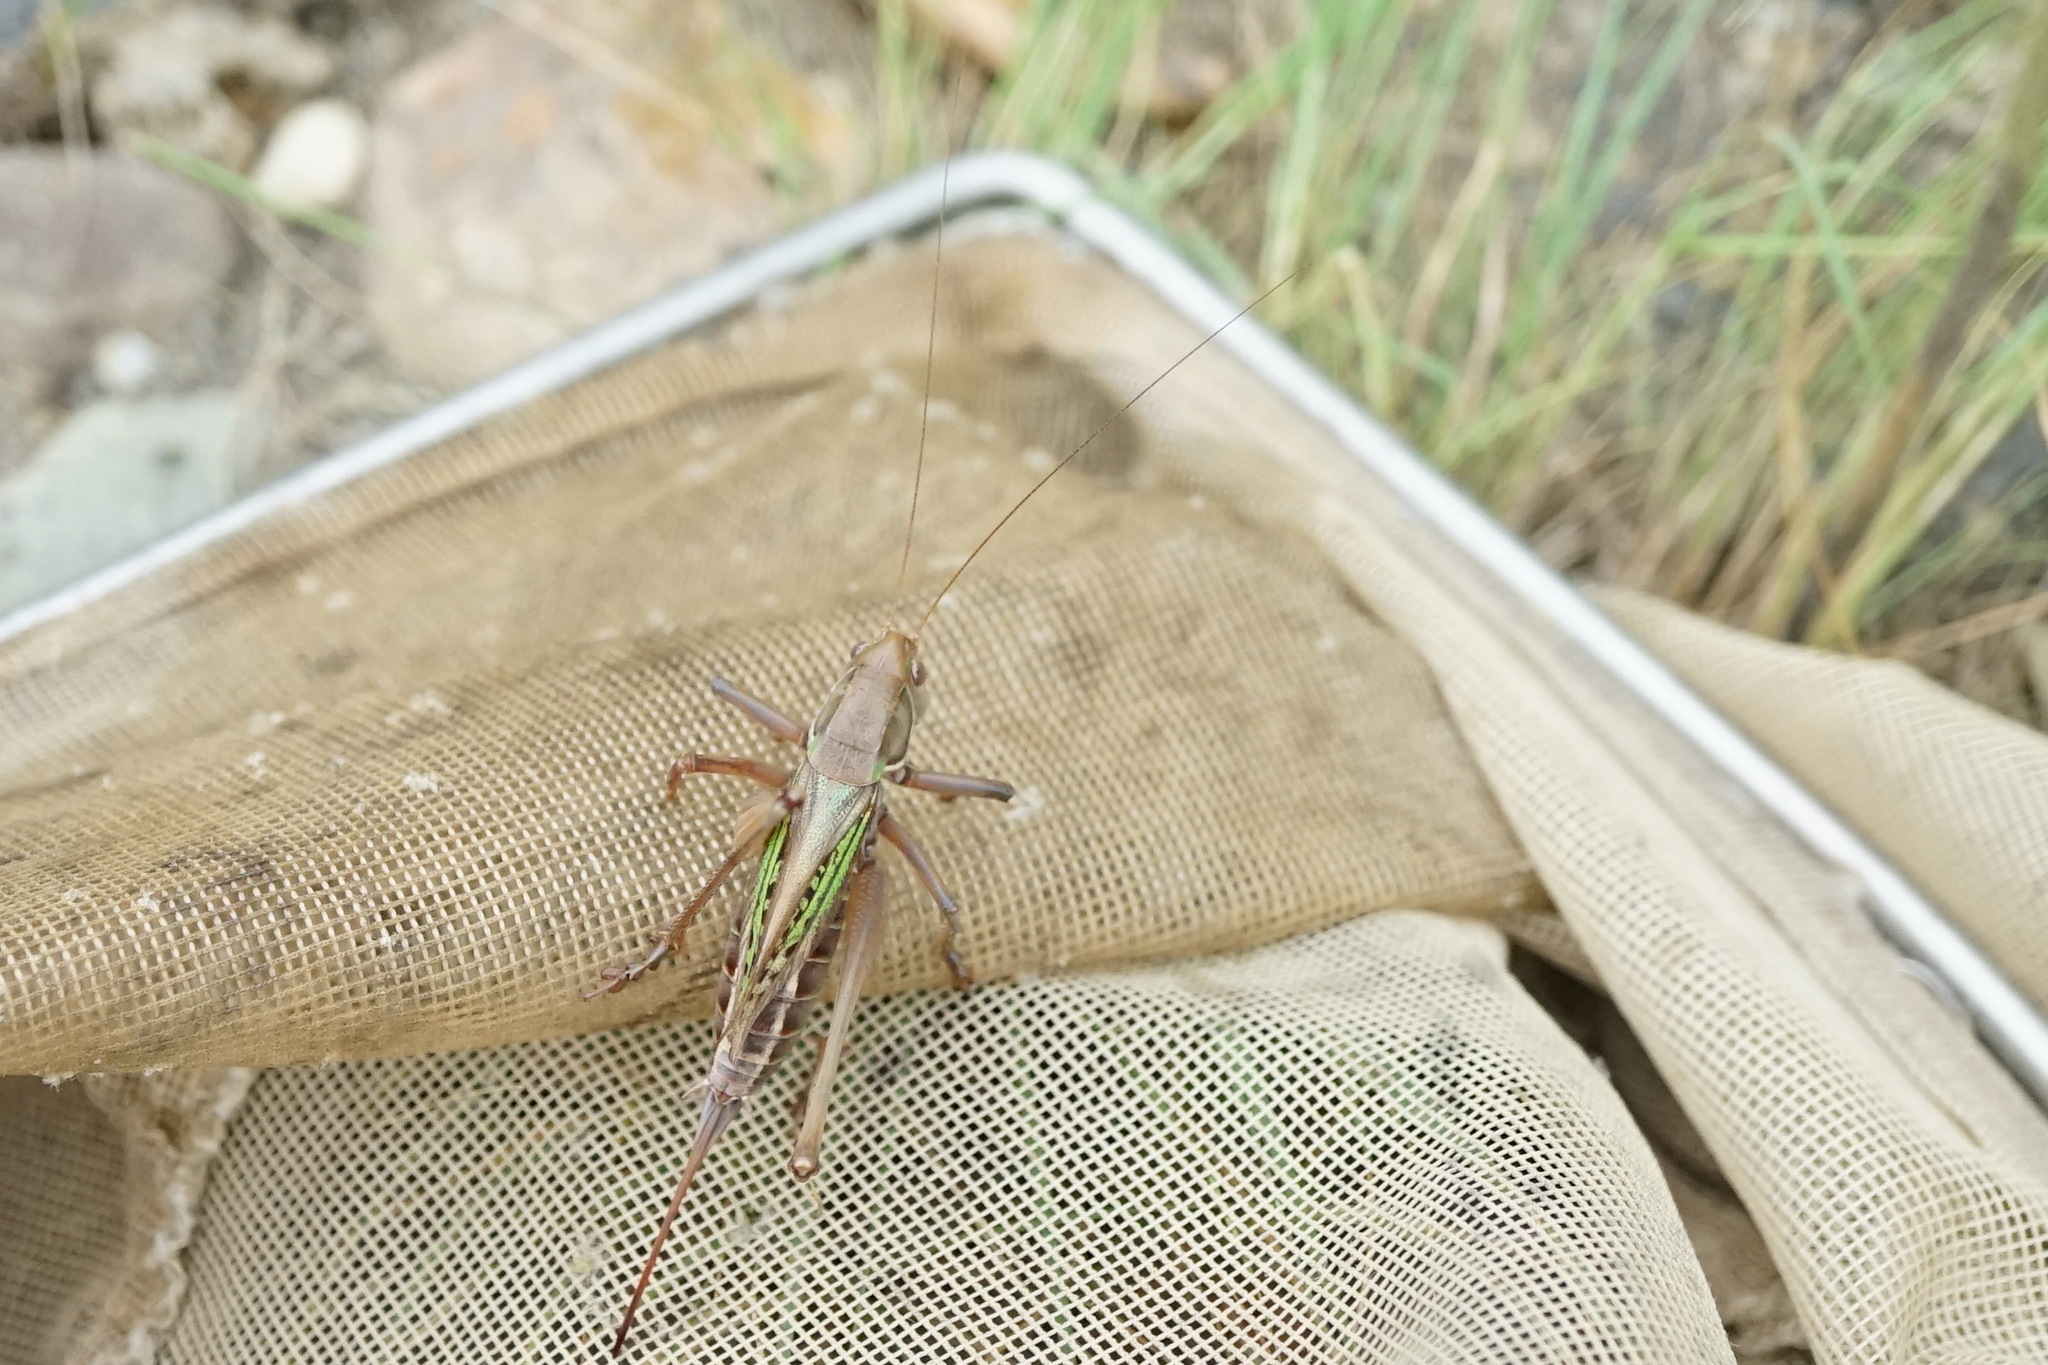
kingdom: Animalia
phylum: Arthropoda
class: Insecta
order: Orthoptera
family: Tettigoniidae
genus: Gampsocleis
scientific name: Gampsocleis buergeri
